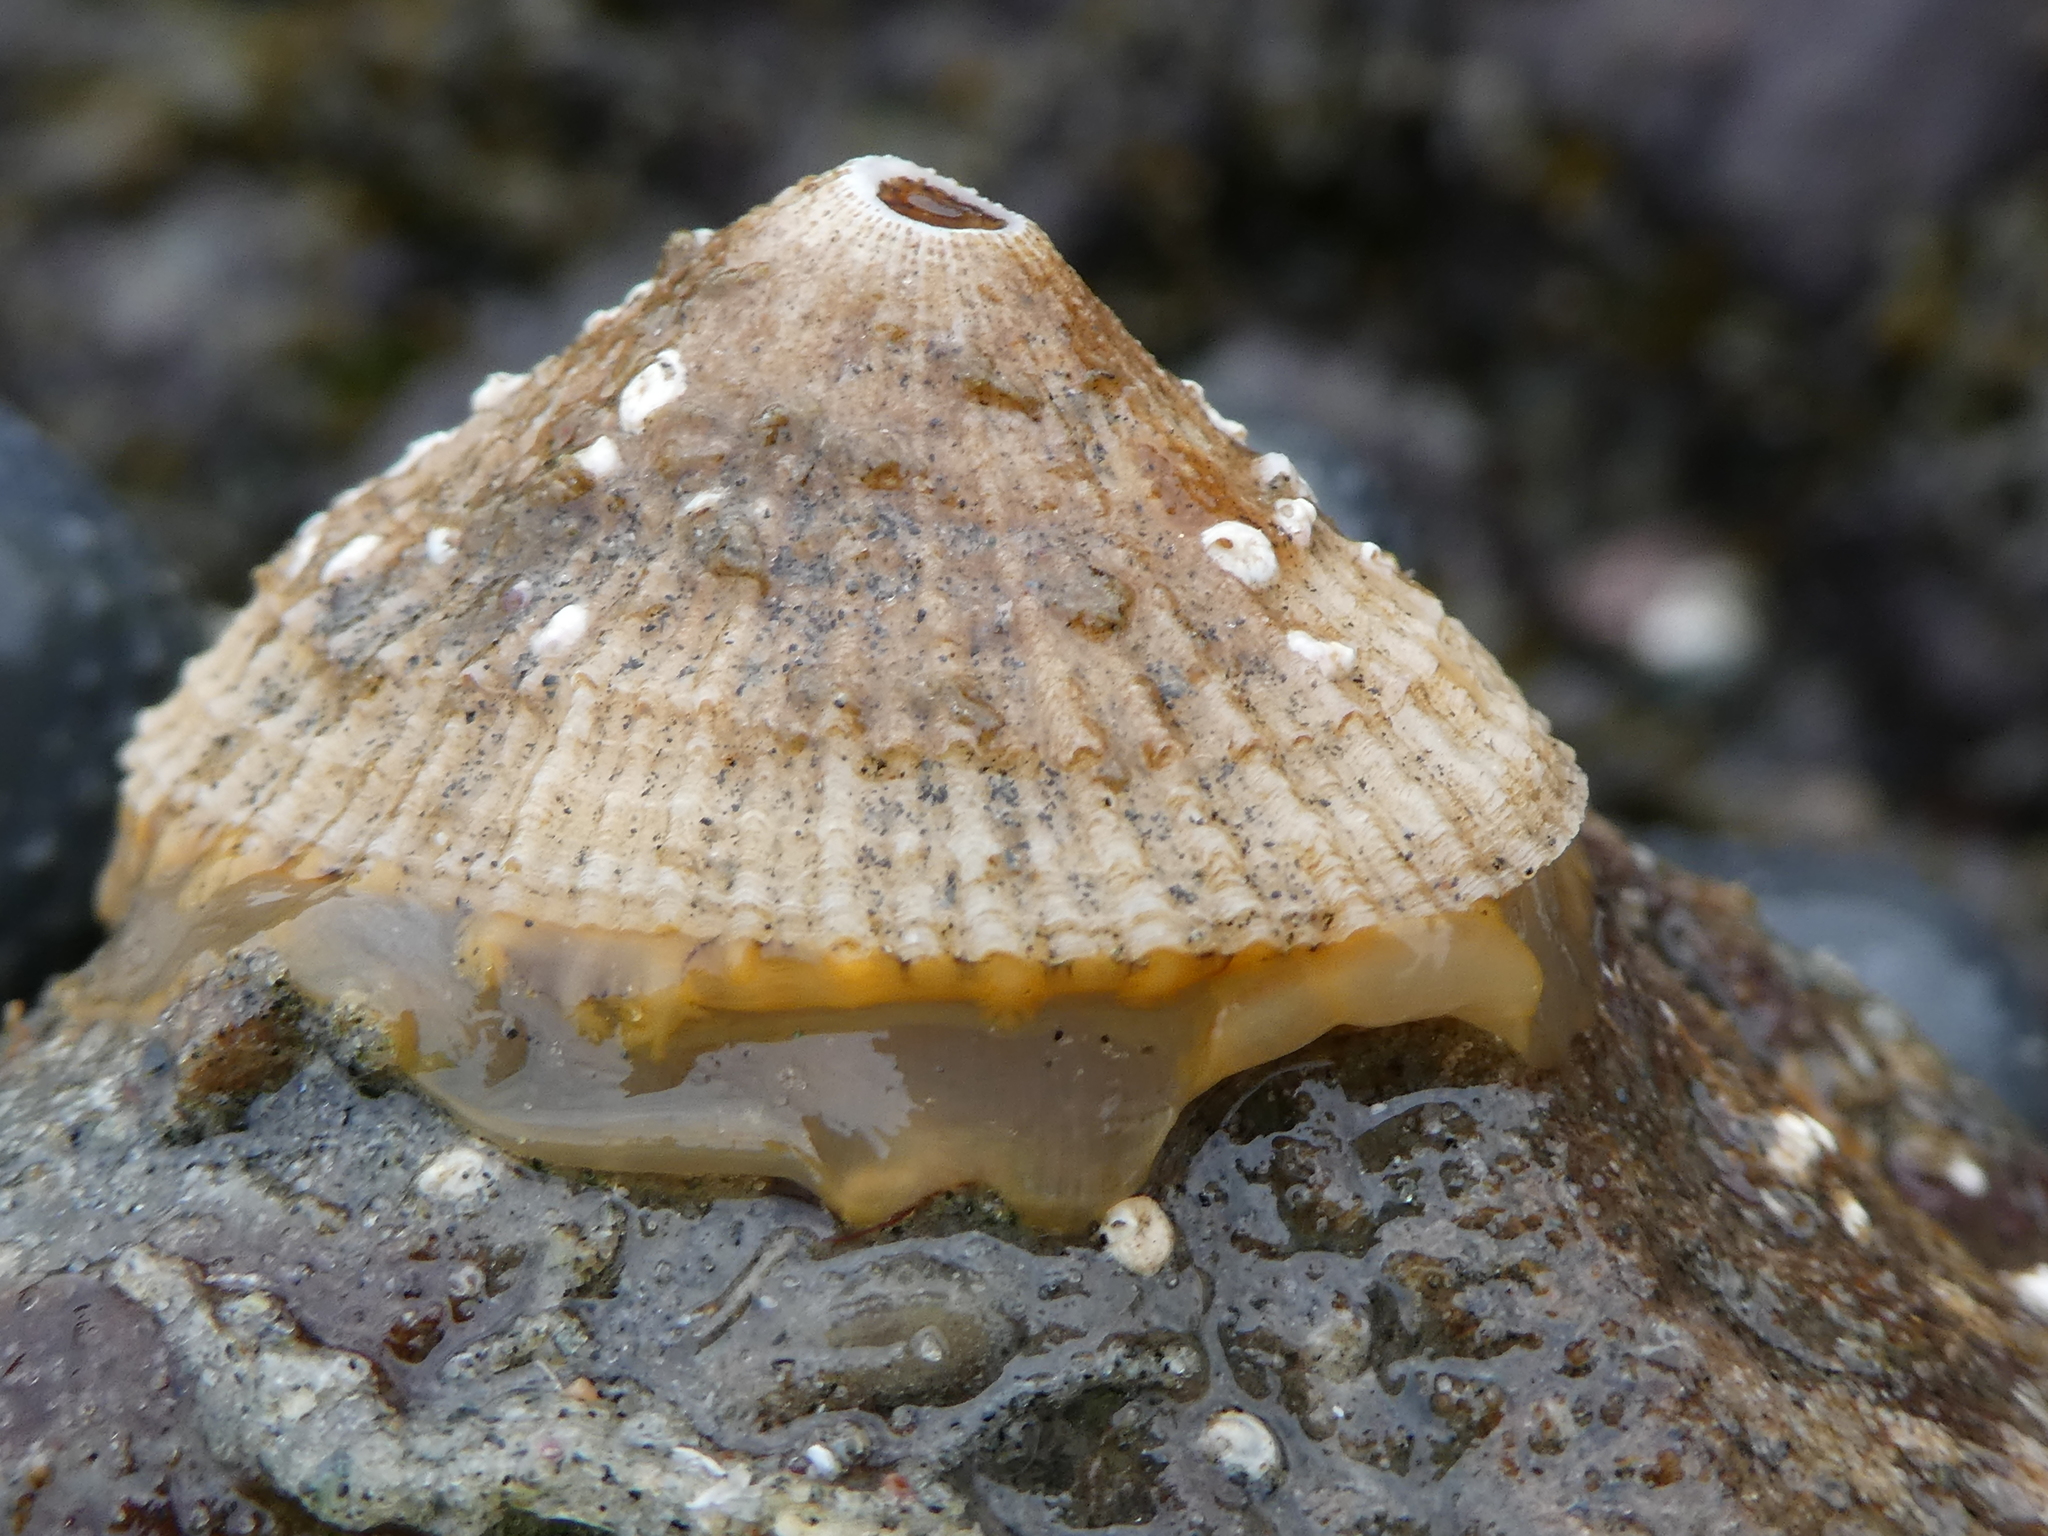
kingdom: Animalia
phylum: Mollusca
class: Gastropoda
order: Lepetellida
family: Fissurellidae
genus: Diodora
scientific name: Diodora aspera
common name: Rough keyhole limpet
